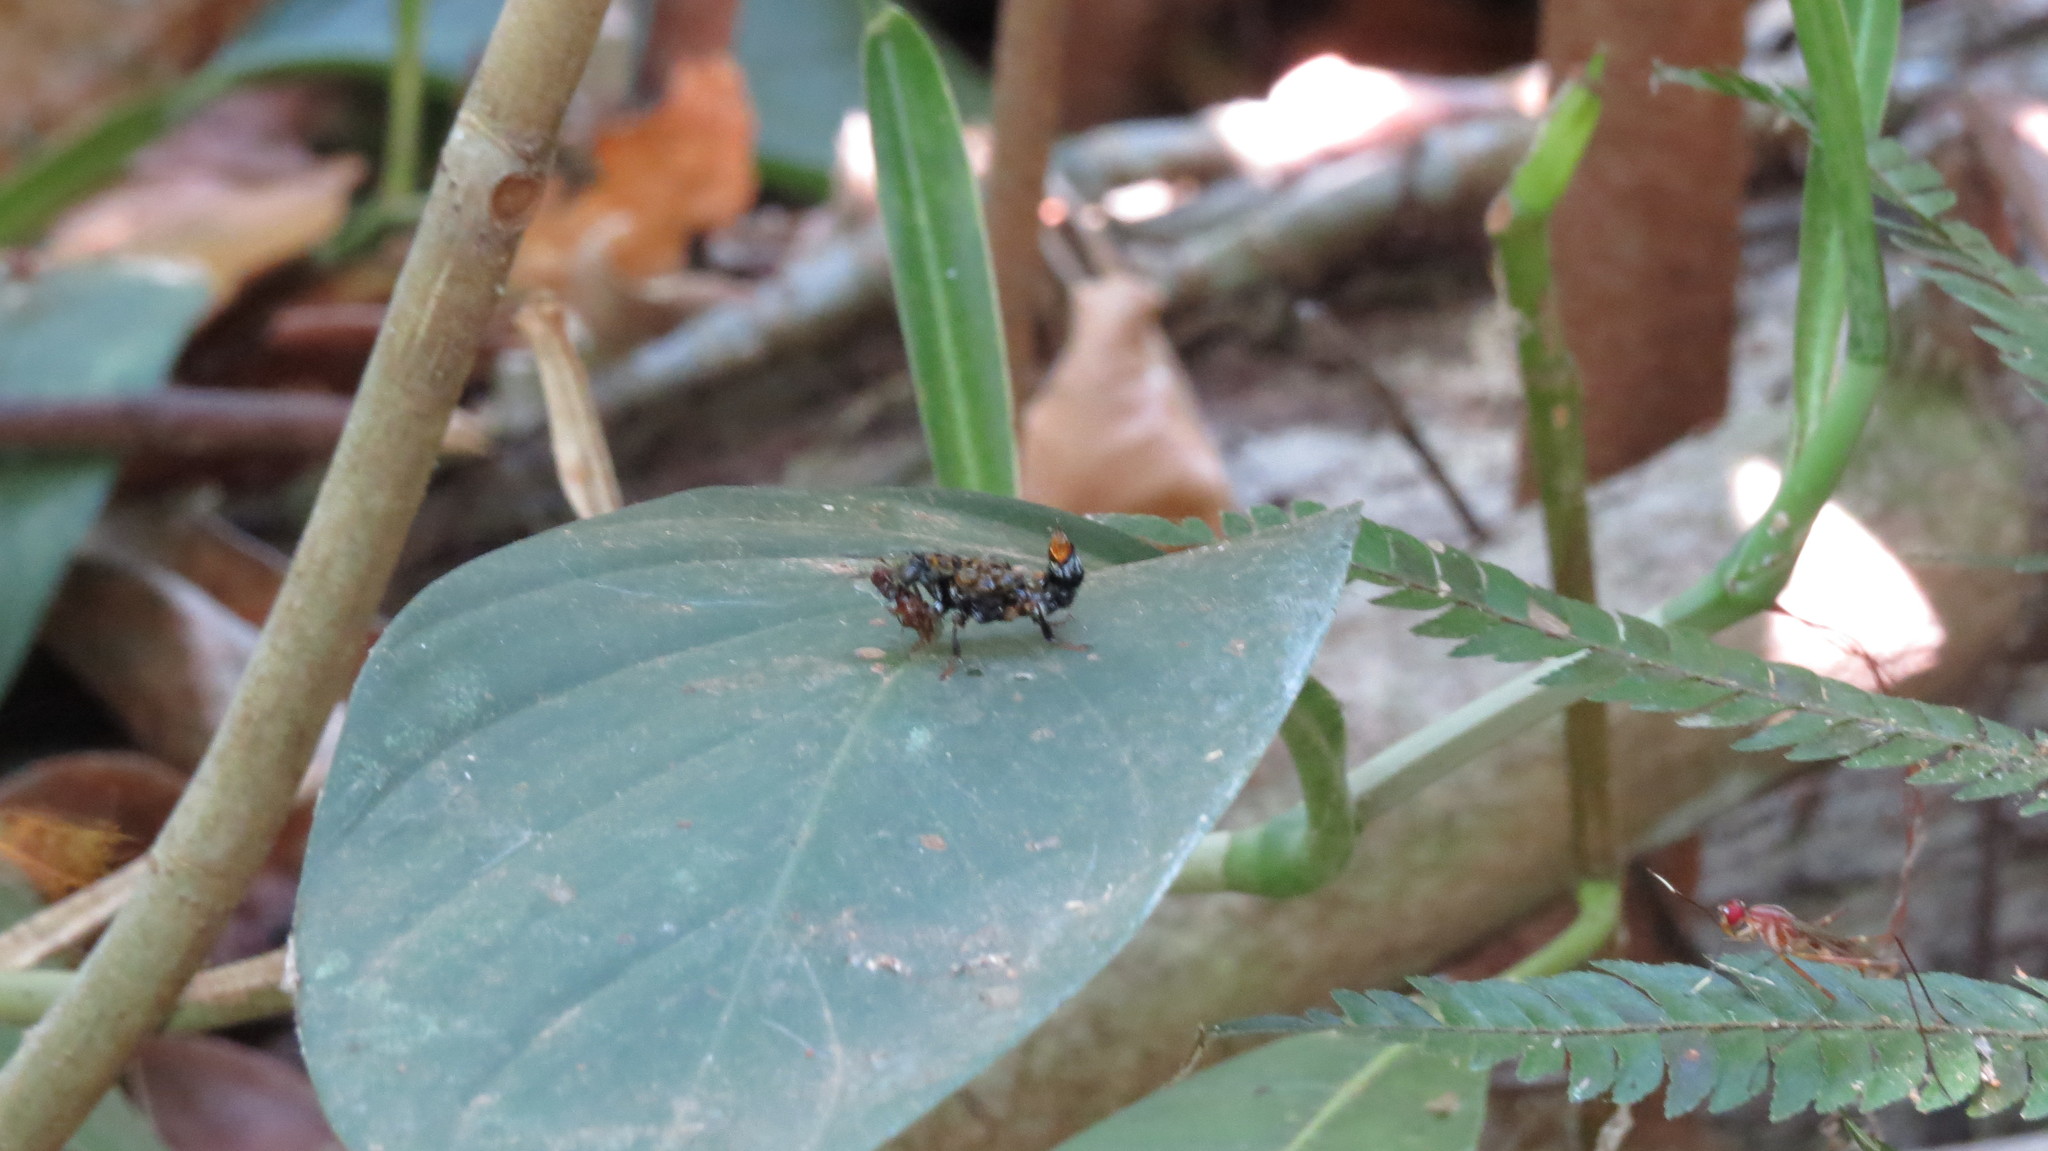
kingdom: Animalia
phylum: Arthropoda
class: Insecta
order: Coleoptera
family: Staphylinidae
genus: Leistotrophus
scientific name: Leistotrophus versicolor
